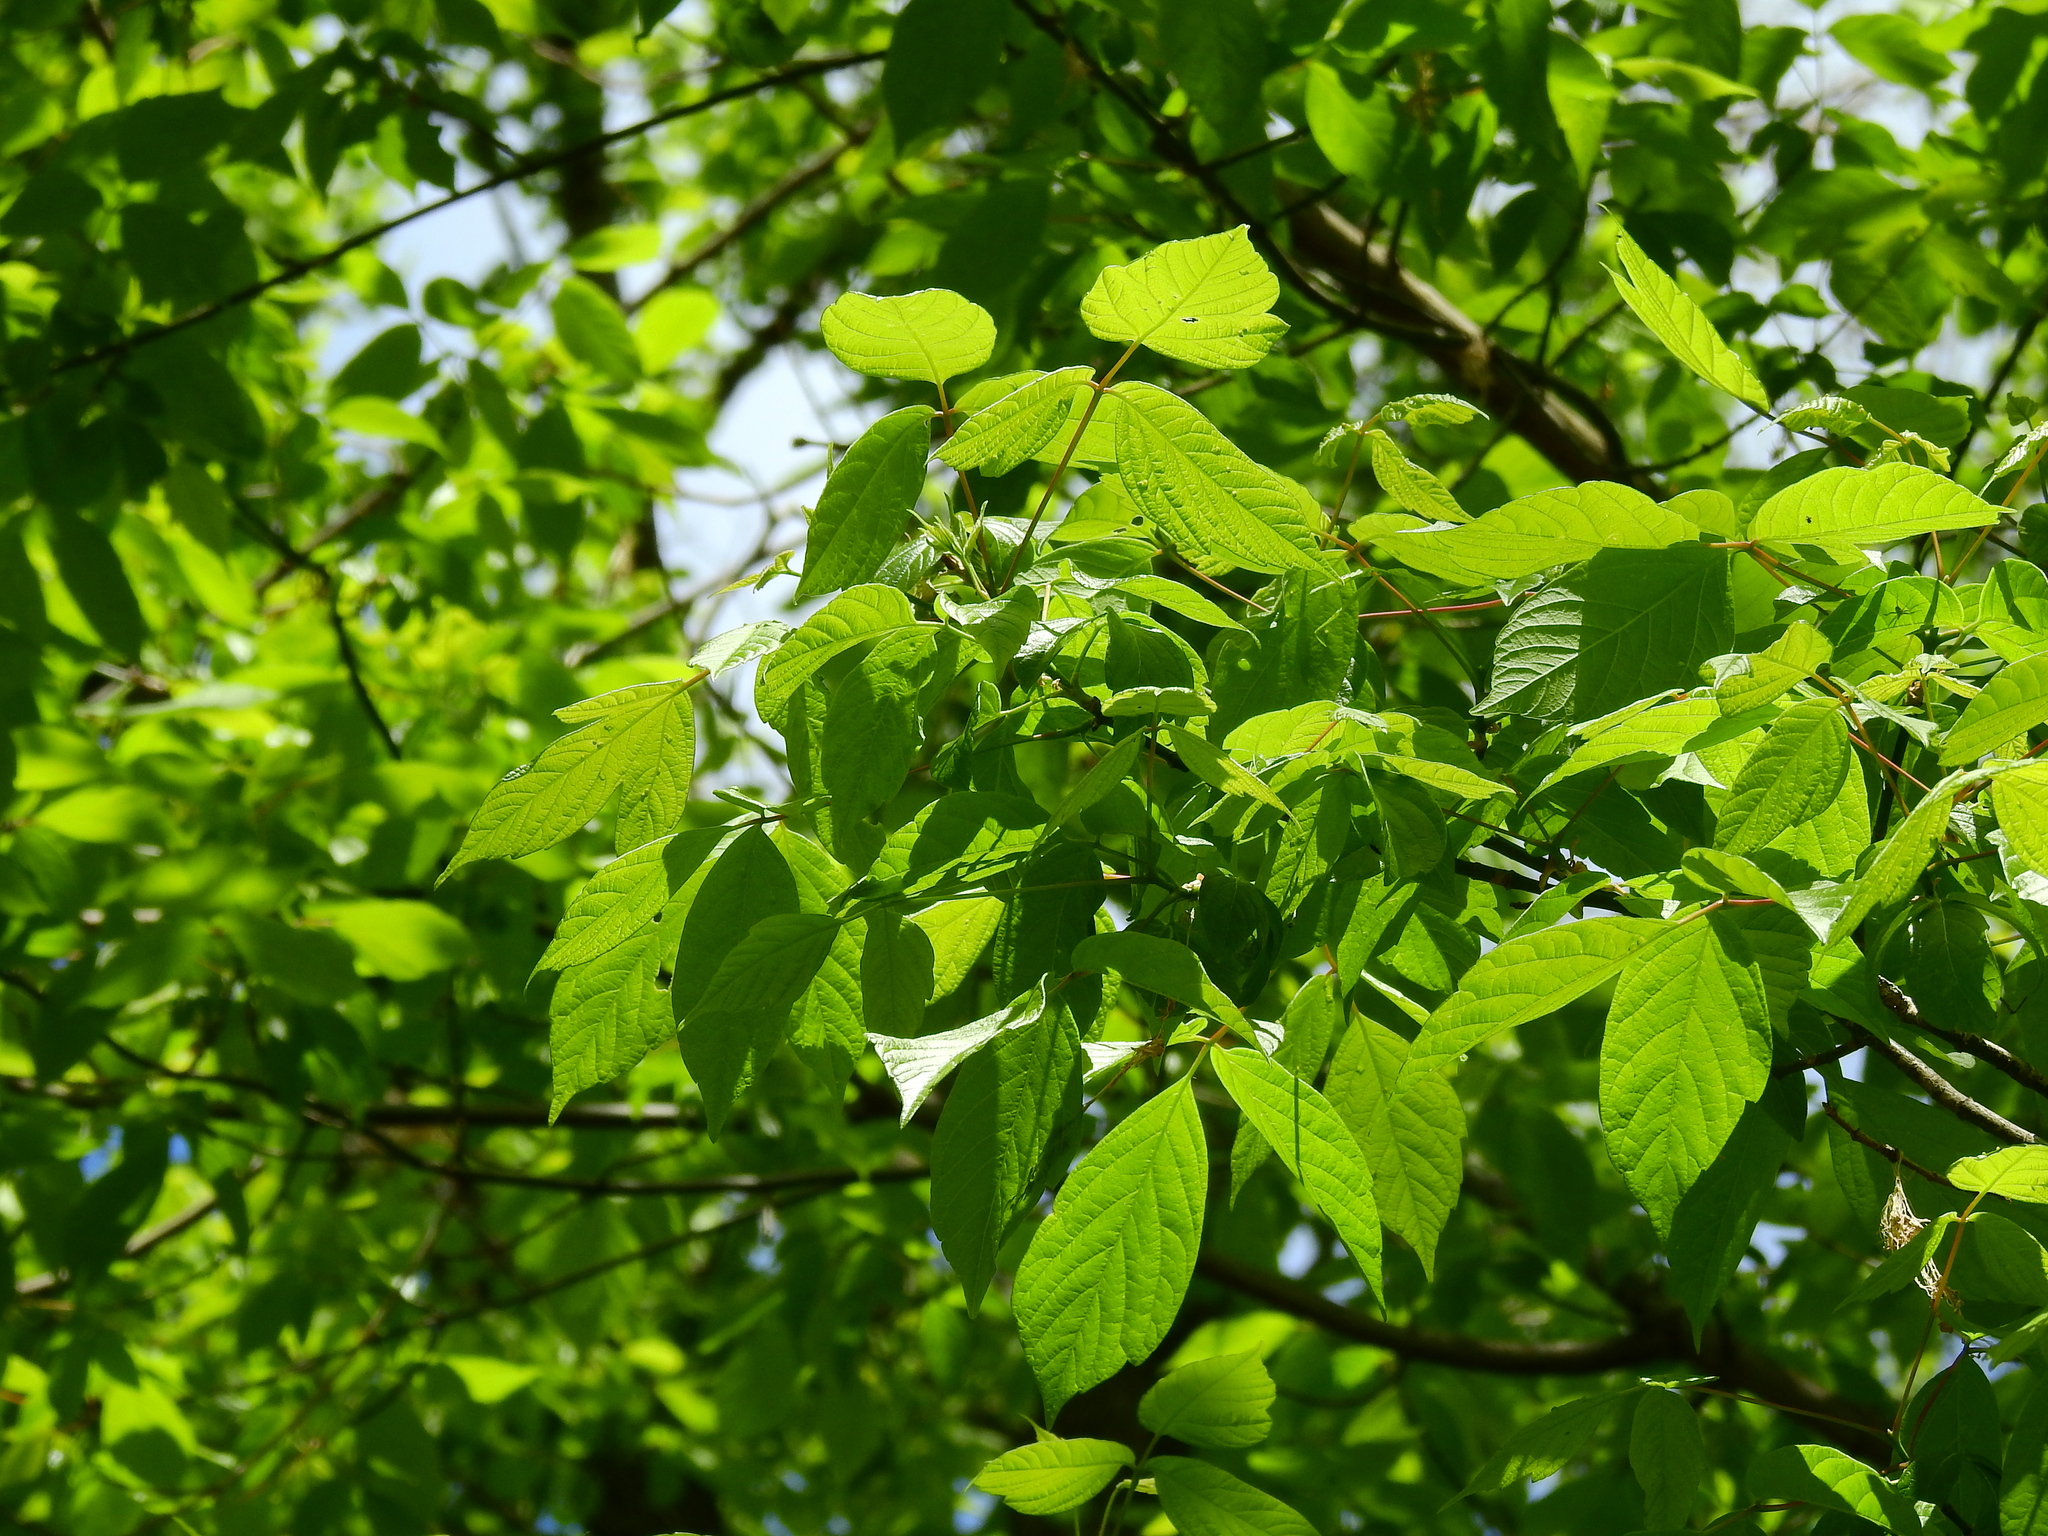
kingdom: Plantae
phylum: Tracheophyta
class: Magnoliopsida
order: Sapindales
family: Sapindaceae
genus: Acer
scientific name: Acer negundo
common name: Ashleaf maple
